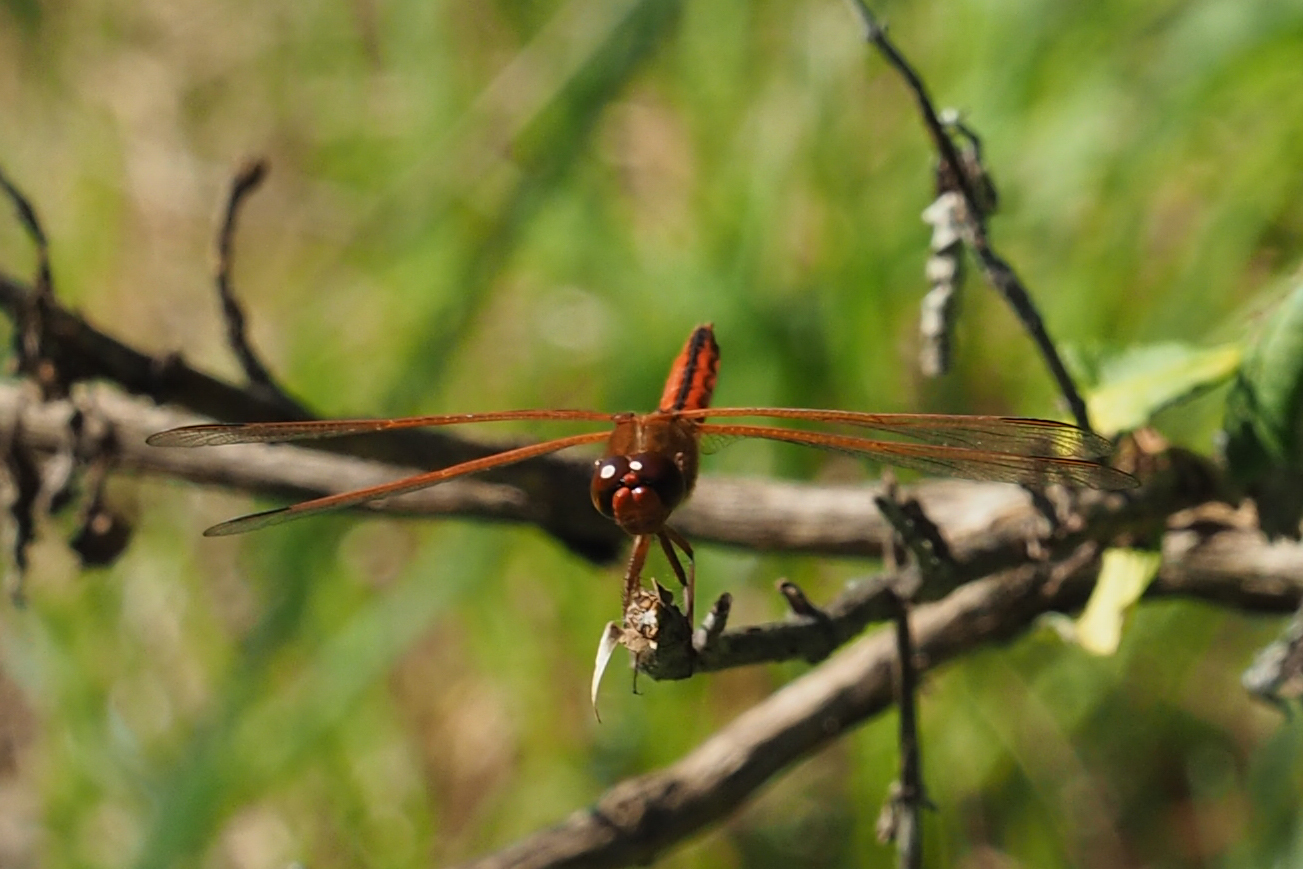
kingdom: Animalia
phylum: Arthropoda
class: Insecta
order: Odonata
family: Libellulidae
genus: Libellula
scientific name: Libellula needhami
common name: Needham's skimmer
